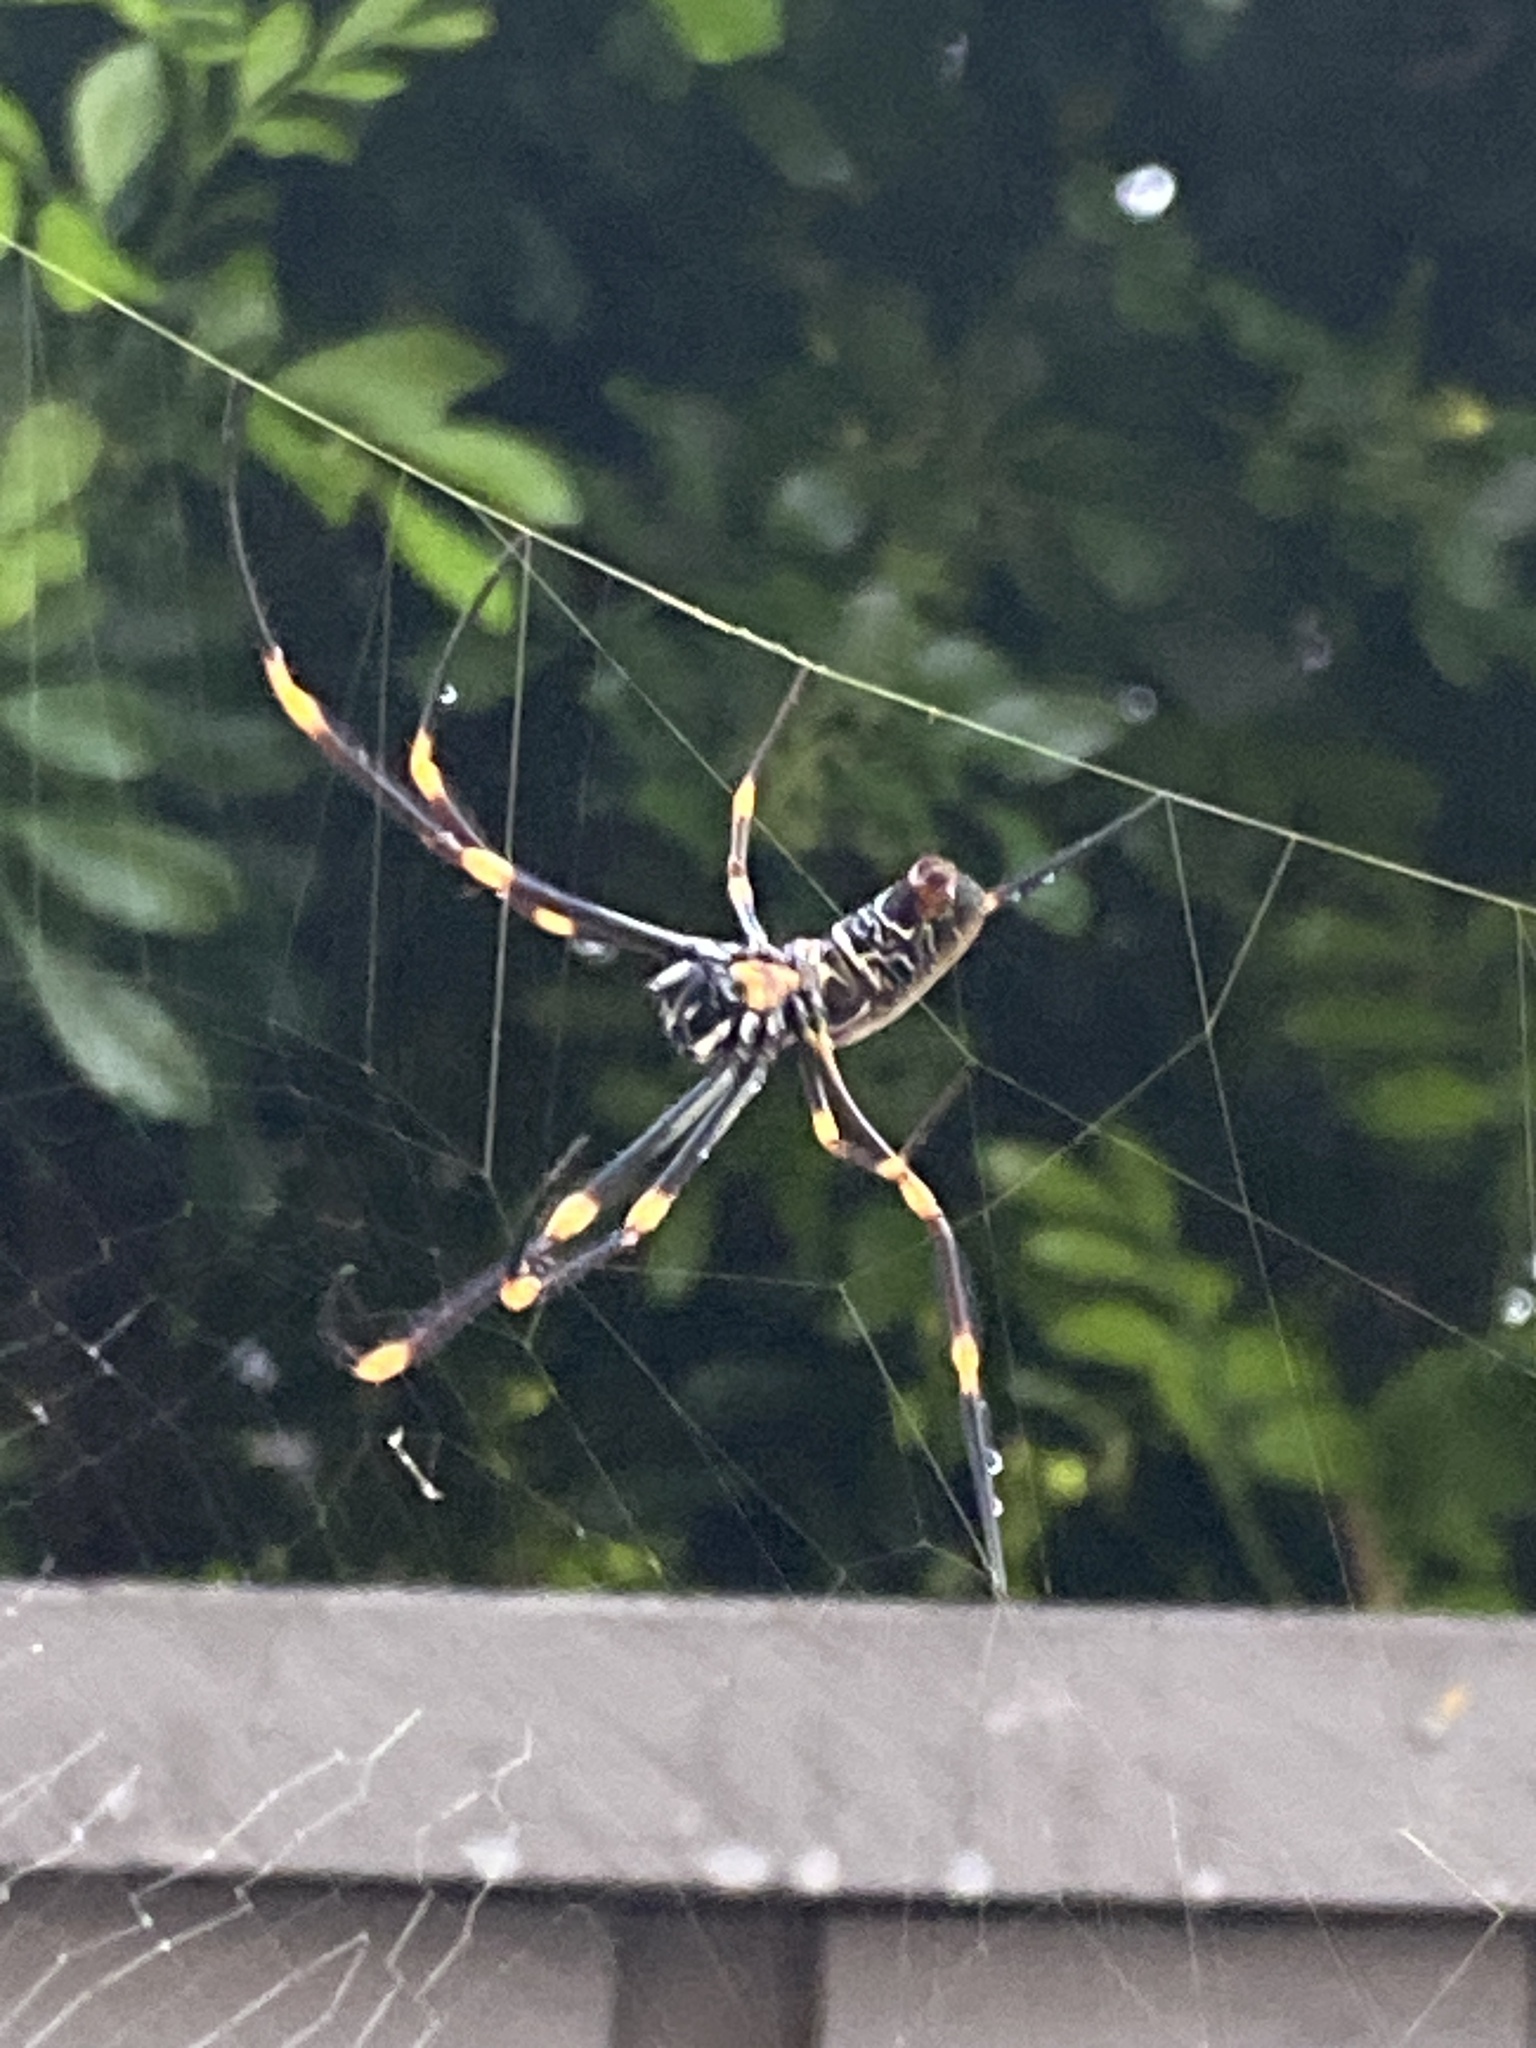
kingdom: Animalia
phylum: Arthropoda
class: Arachnida
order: Araneae
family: Araneidae
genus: Trichonephila
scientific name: Trichonephila plumipes
